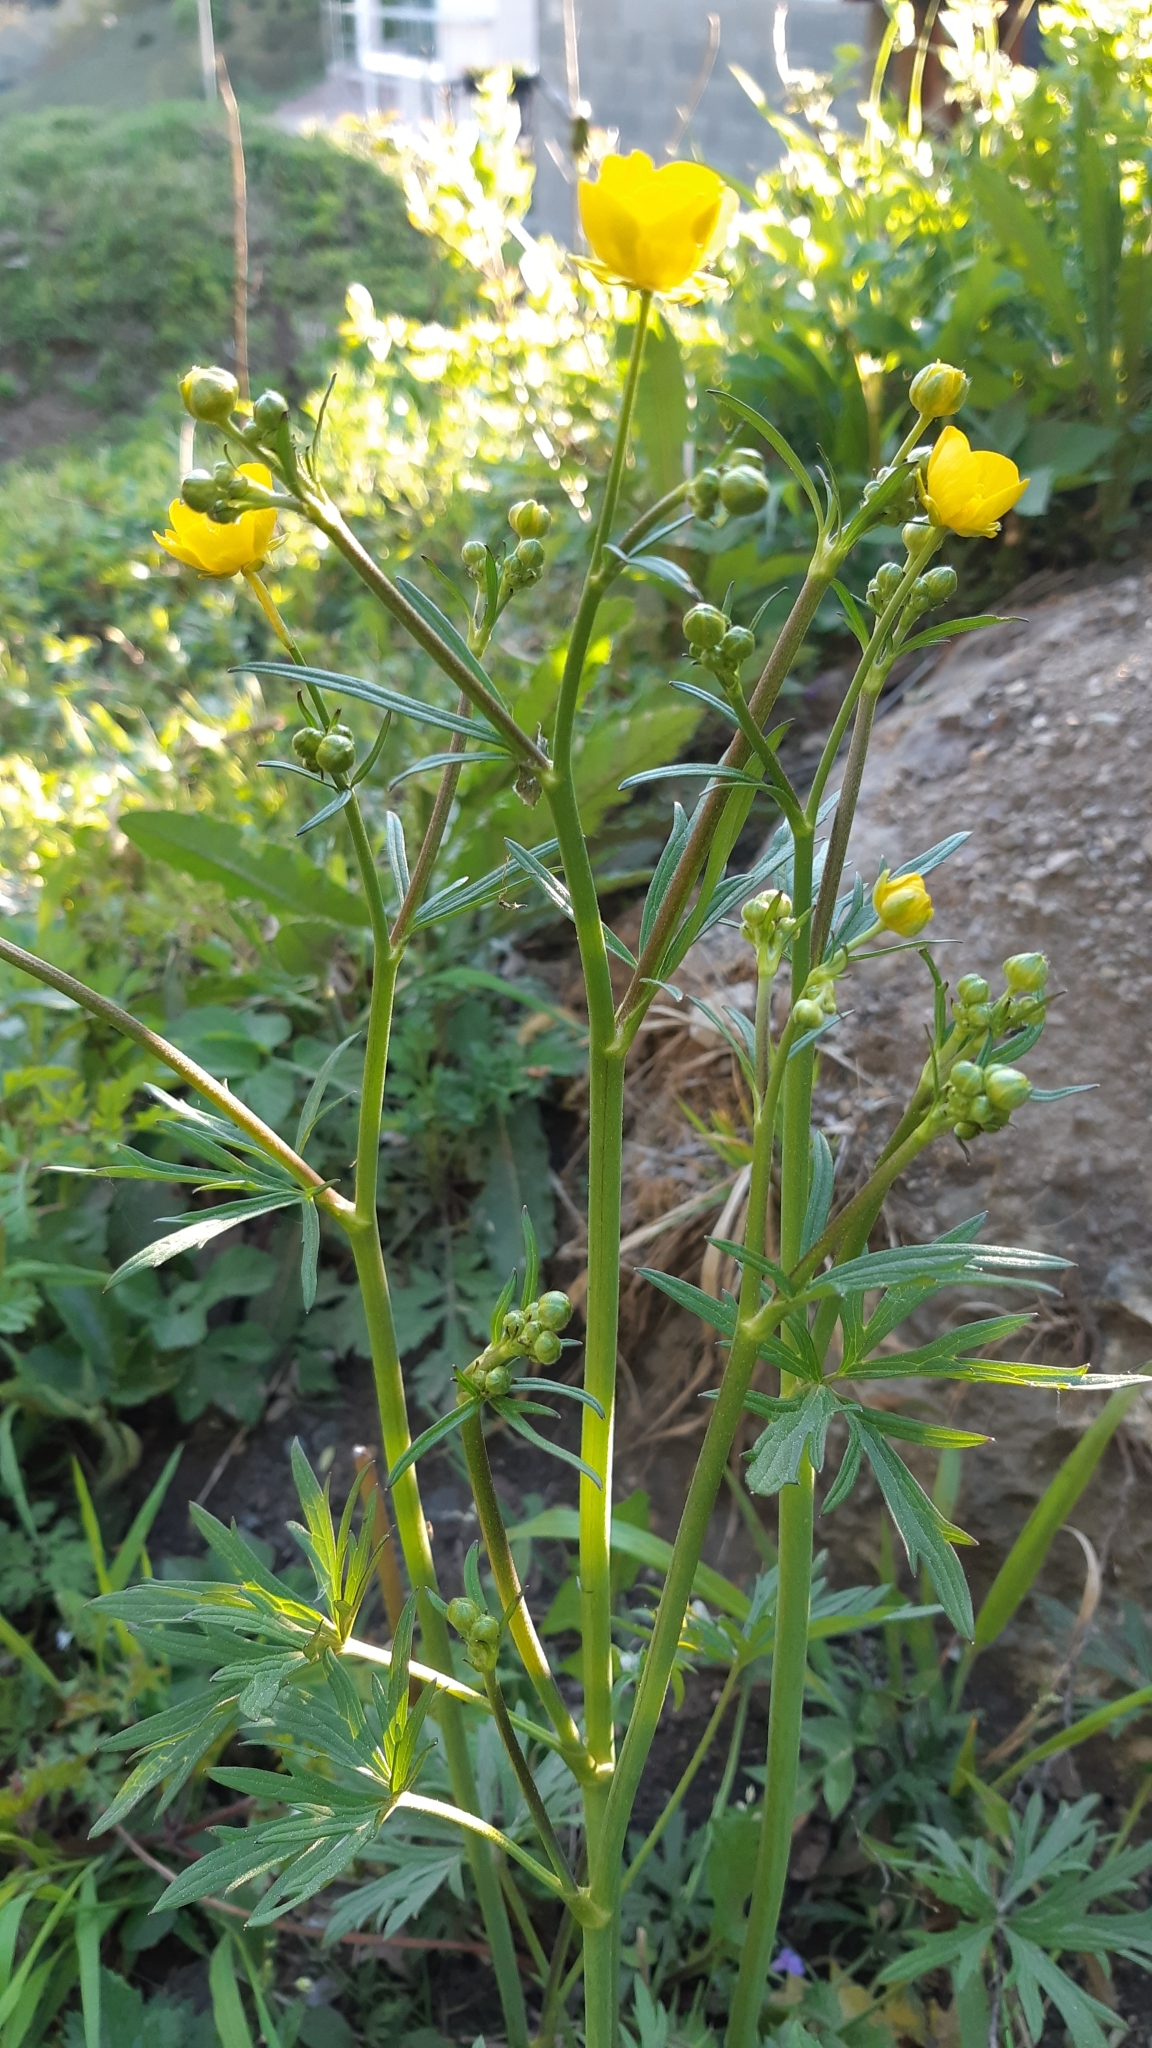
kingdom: Plantae
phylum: Tracheophyta
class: Magnoliopsida
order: Ranunculales
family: Ranunculaceae
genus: Ranunculus
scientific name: Ranunculus acris
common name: Meadow buttercup
